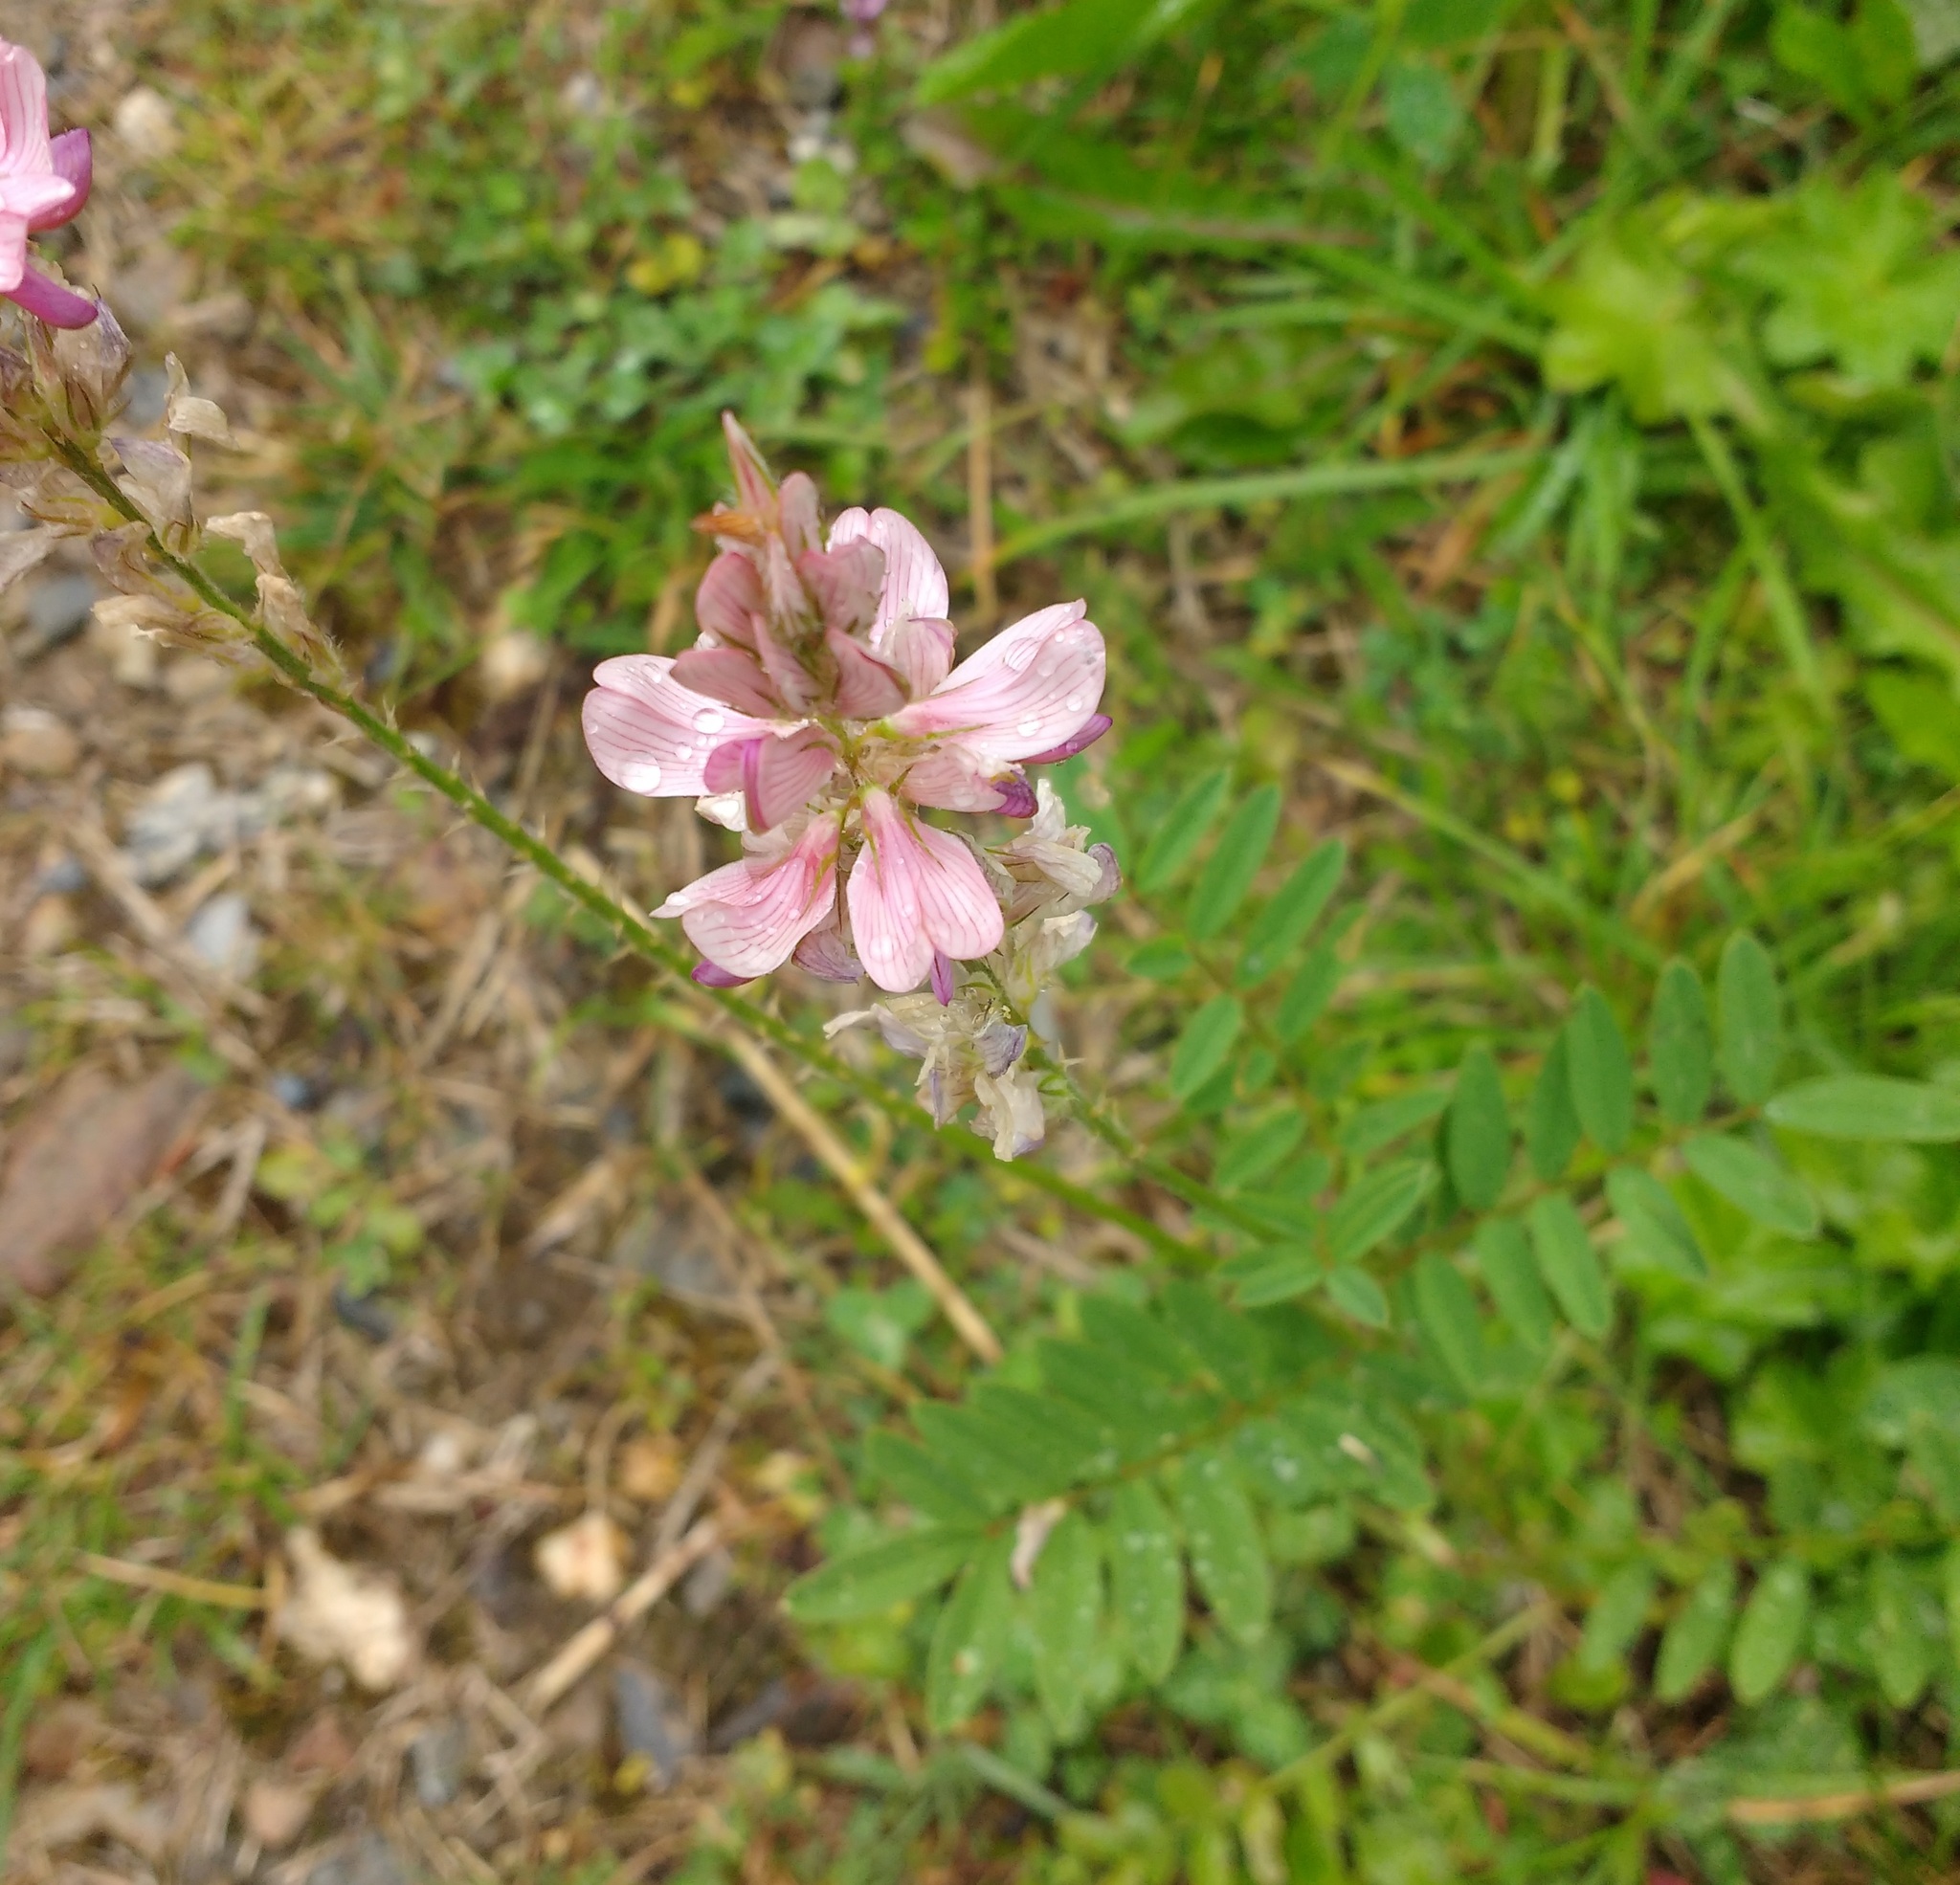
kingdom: Plantae
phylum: Tracheophyta
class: Magnoliopsida
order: Fabales
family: Fabaceae
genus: Onobrychis
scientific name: Onobrychis viciifolia
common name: Sainfoin
